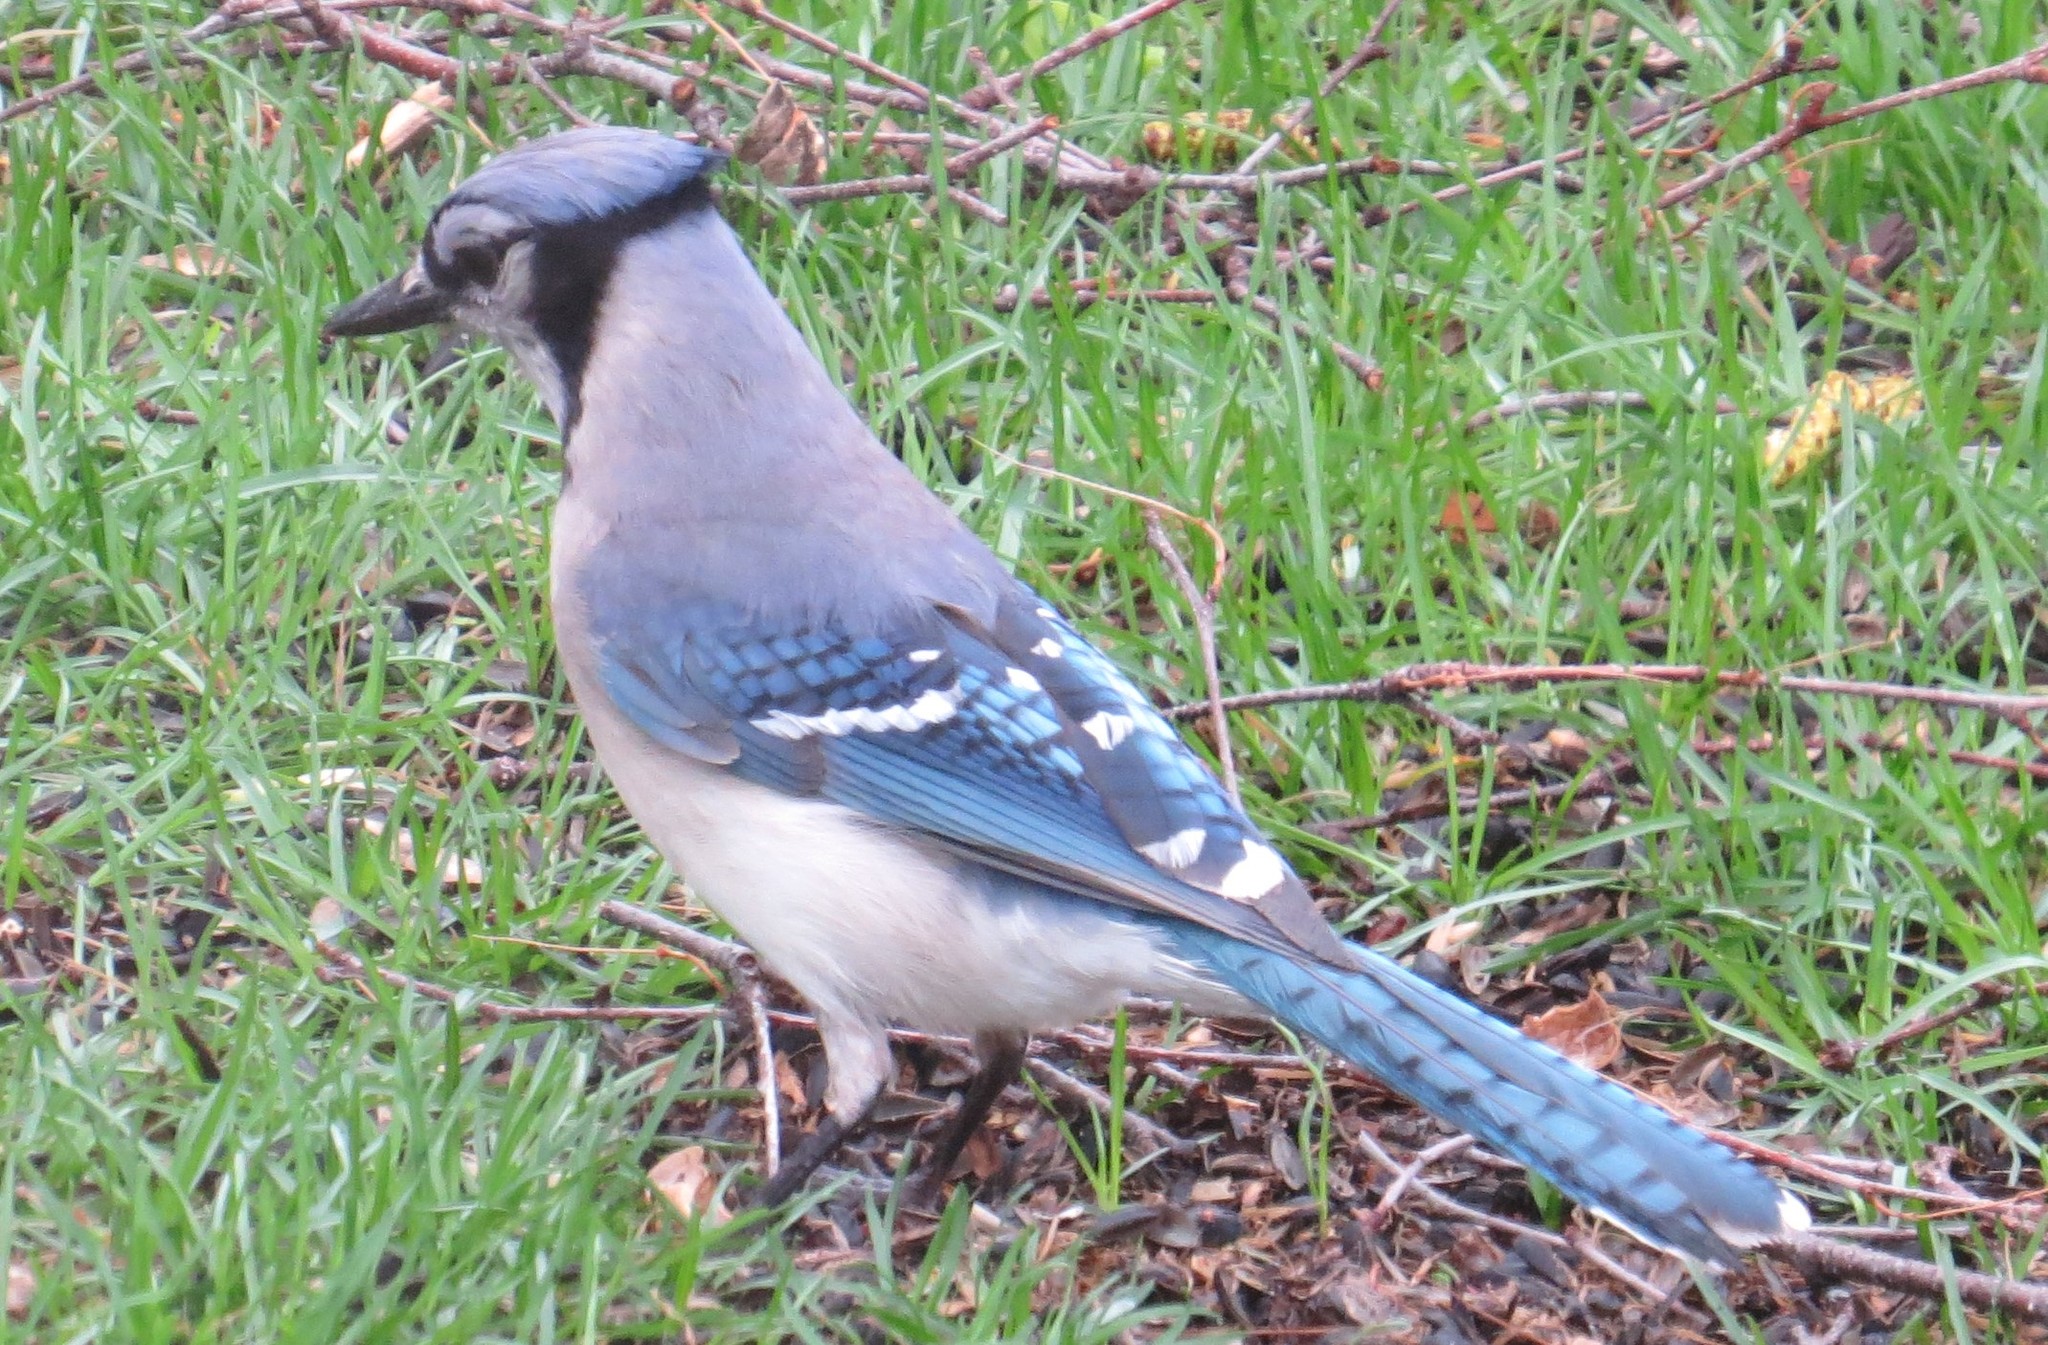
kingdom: Animalia
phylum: Chordata
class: Aves
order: Passeriformes
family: Corvidae
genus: Cyanocitta
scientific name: Cyanocitta cristata
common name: Blue jay
